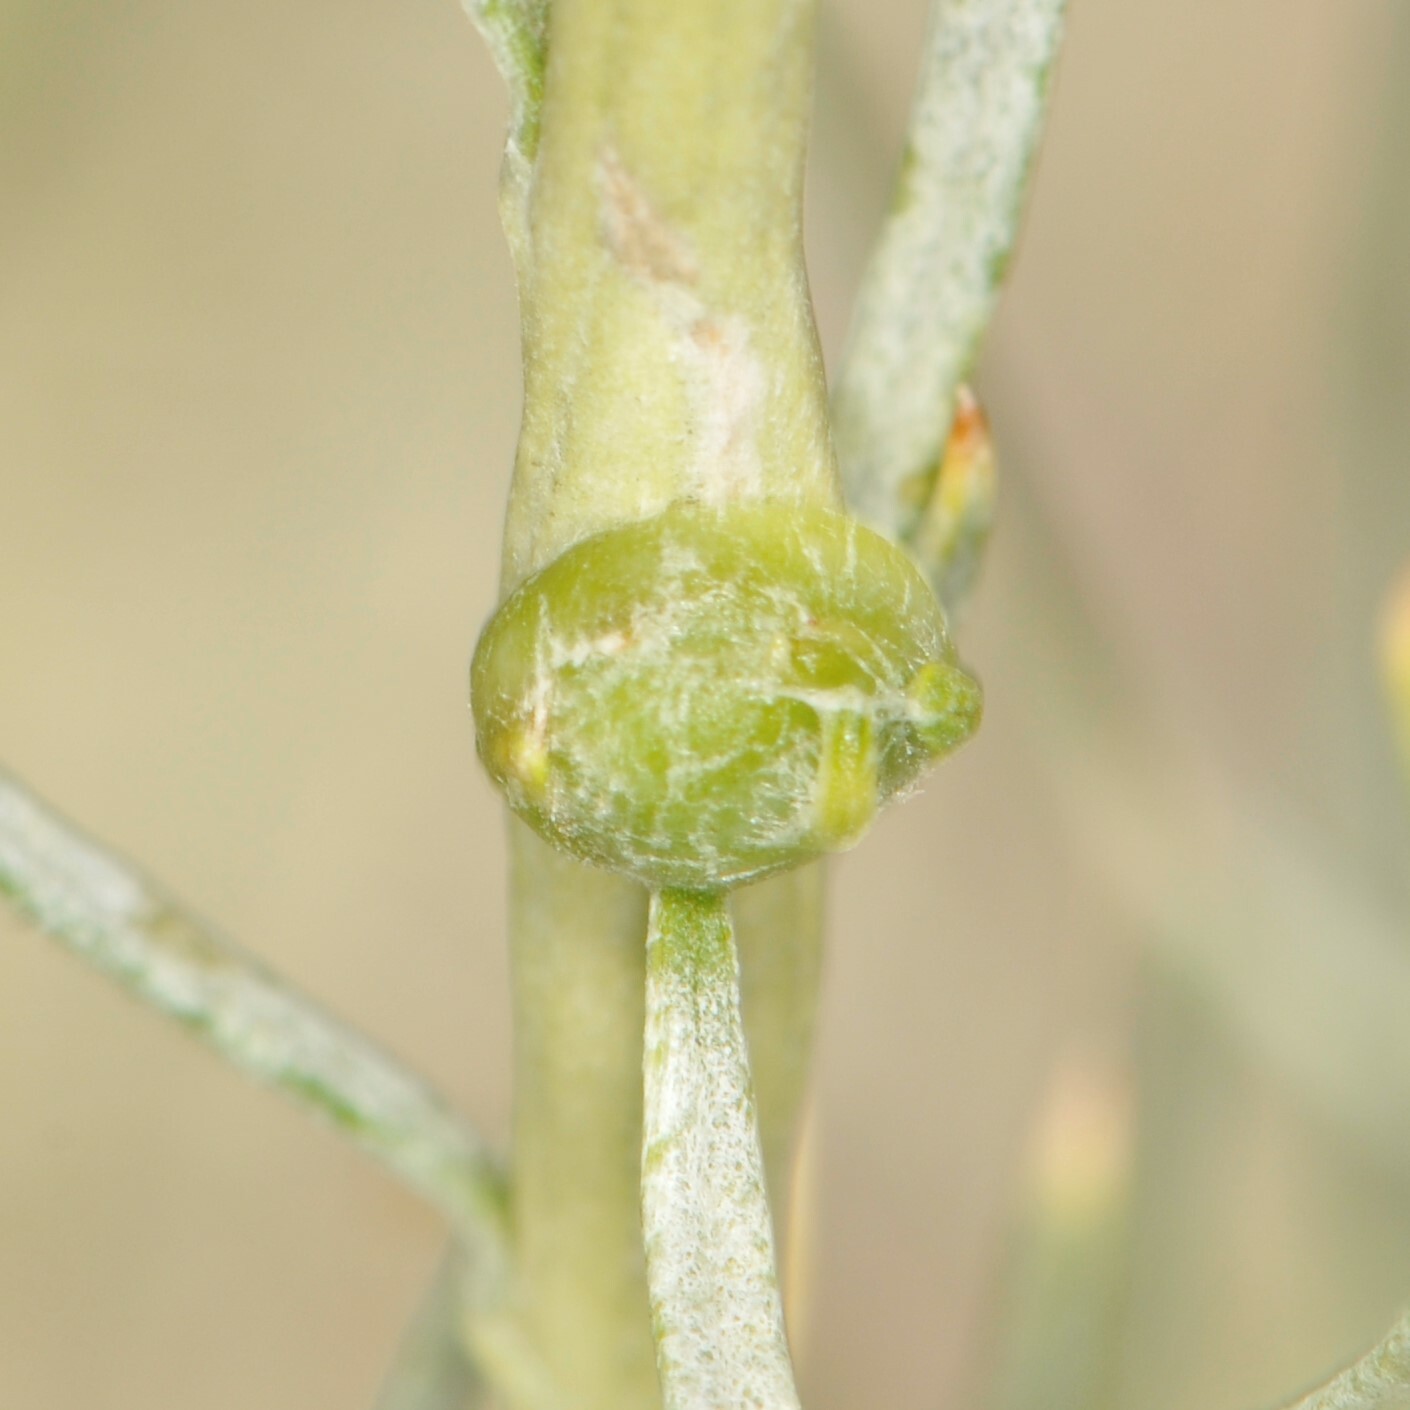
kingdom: Animalia
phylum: Arthropoda
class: Insecta
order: Diptera
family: Tephritidae
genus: Aciurina
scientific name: Aciurina trixa
